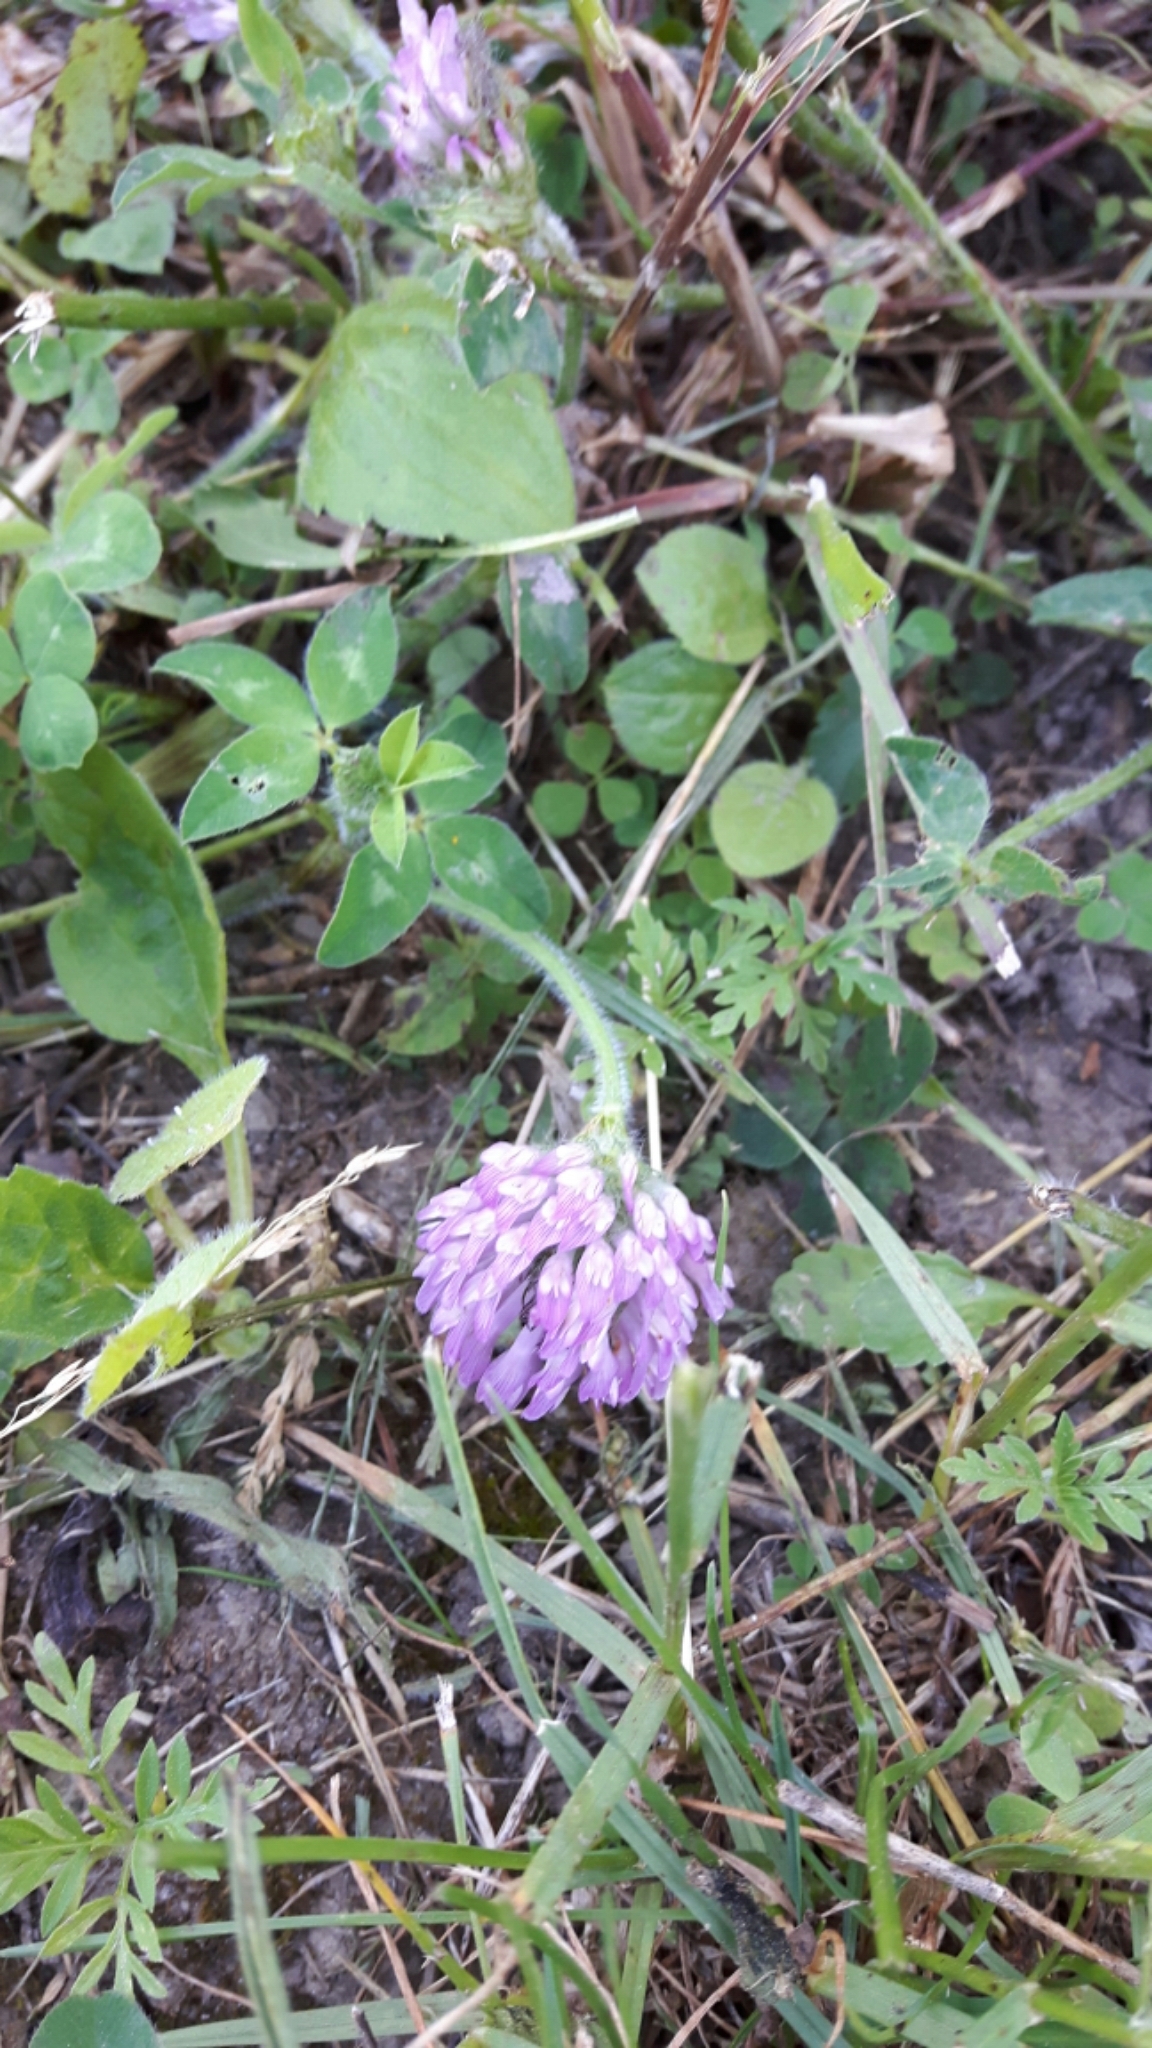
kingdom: Plantae
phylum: Tracheophyta
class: Magnoliopsida
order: Fabales
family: Fabaceae
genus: Trifolium
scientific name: Trifolium pratense
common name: Red clover
